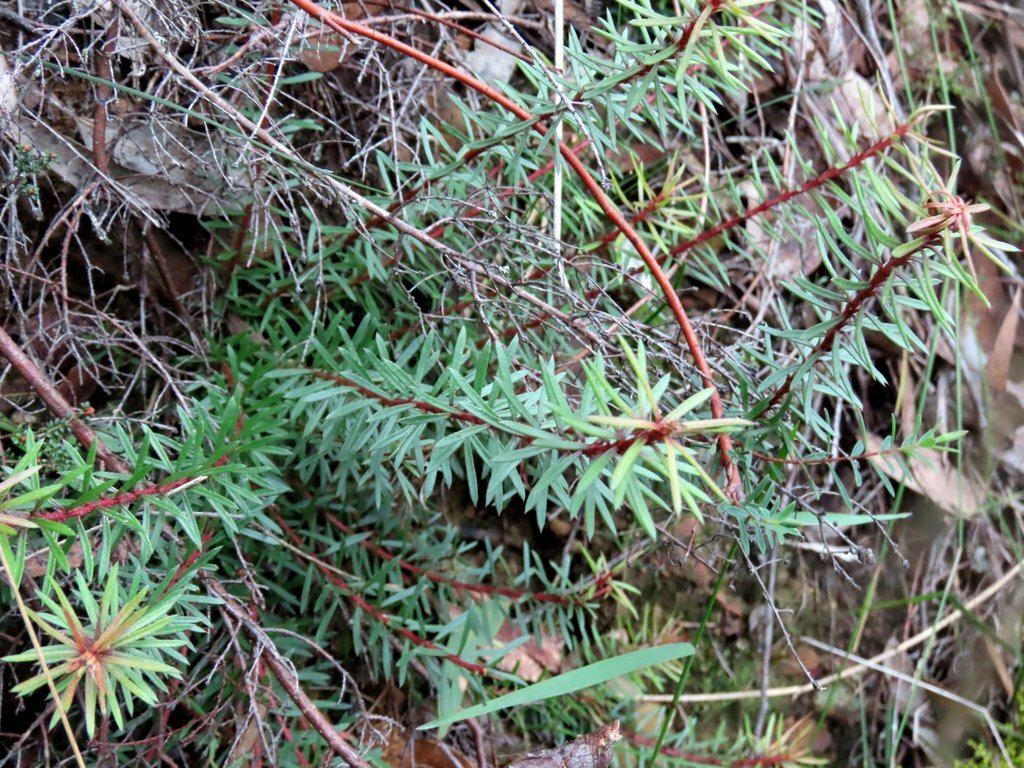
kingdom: Plantae
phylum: Tracheophyta
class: Magnoliopsida
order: Proteales
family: Proteaceae
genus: Persoonia
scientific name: Persoonia chamaepeuce
